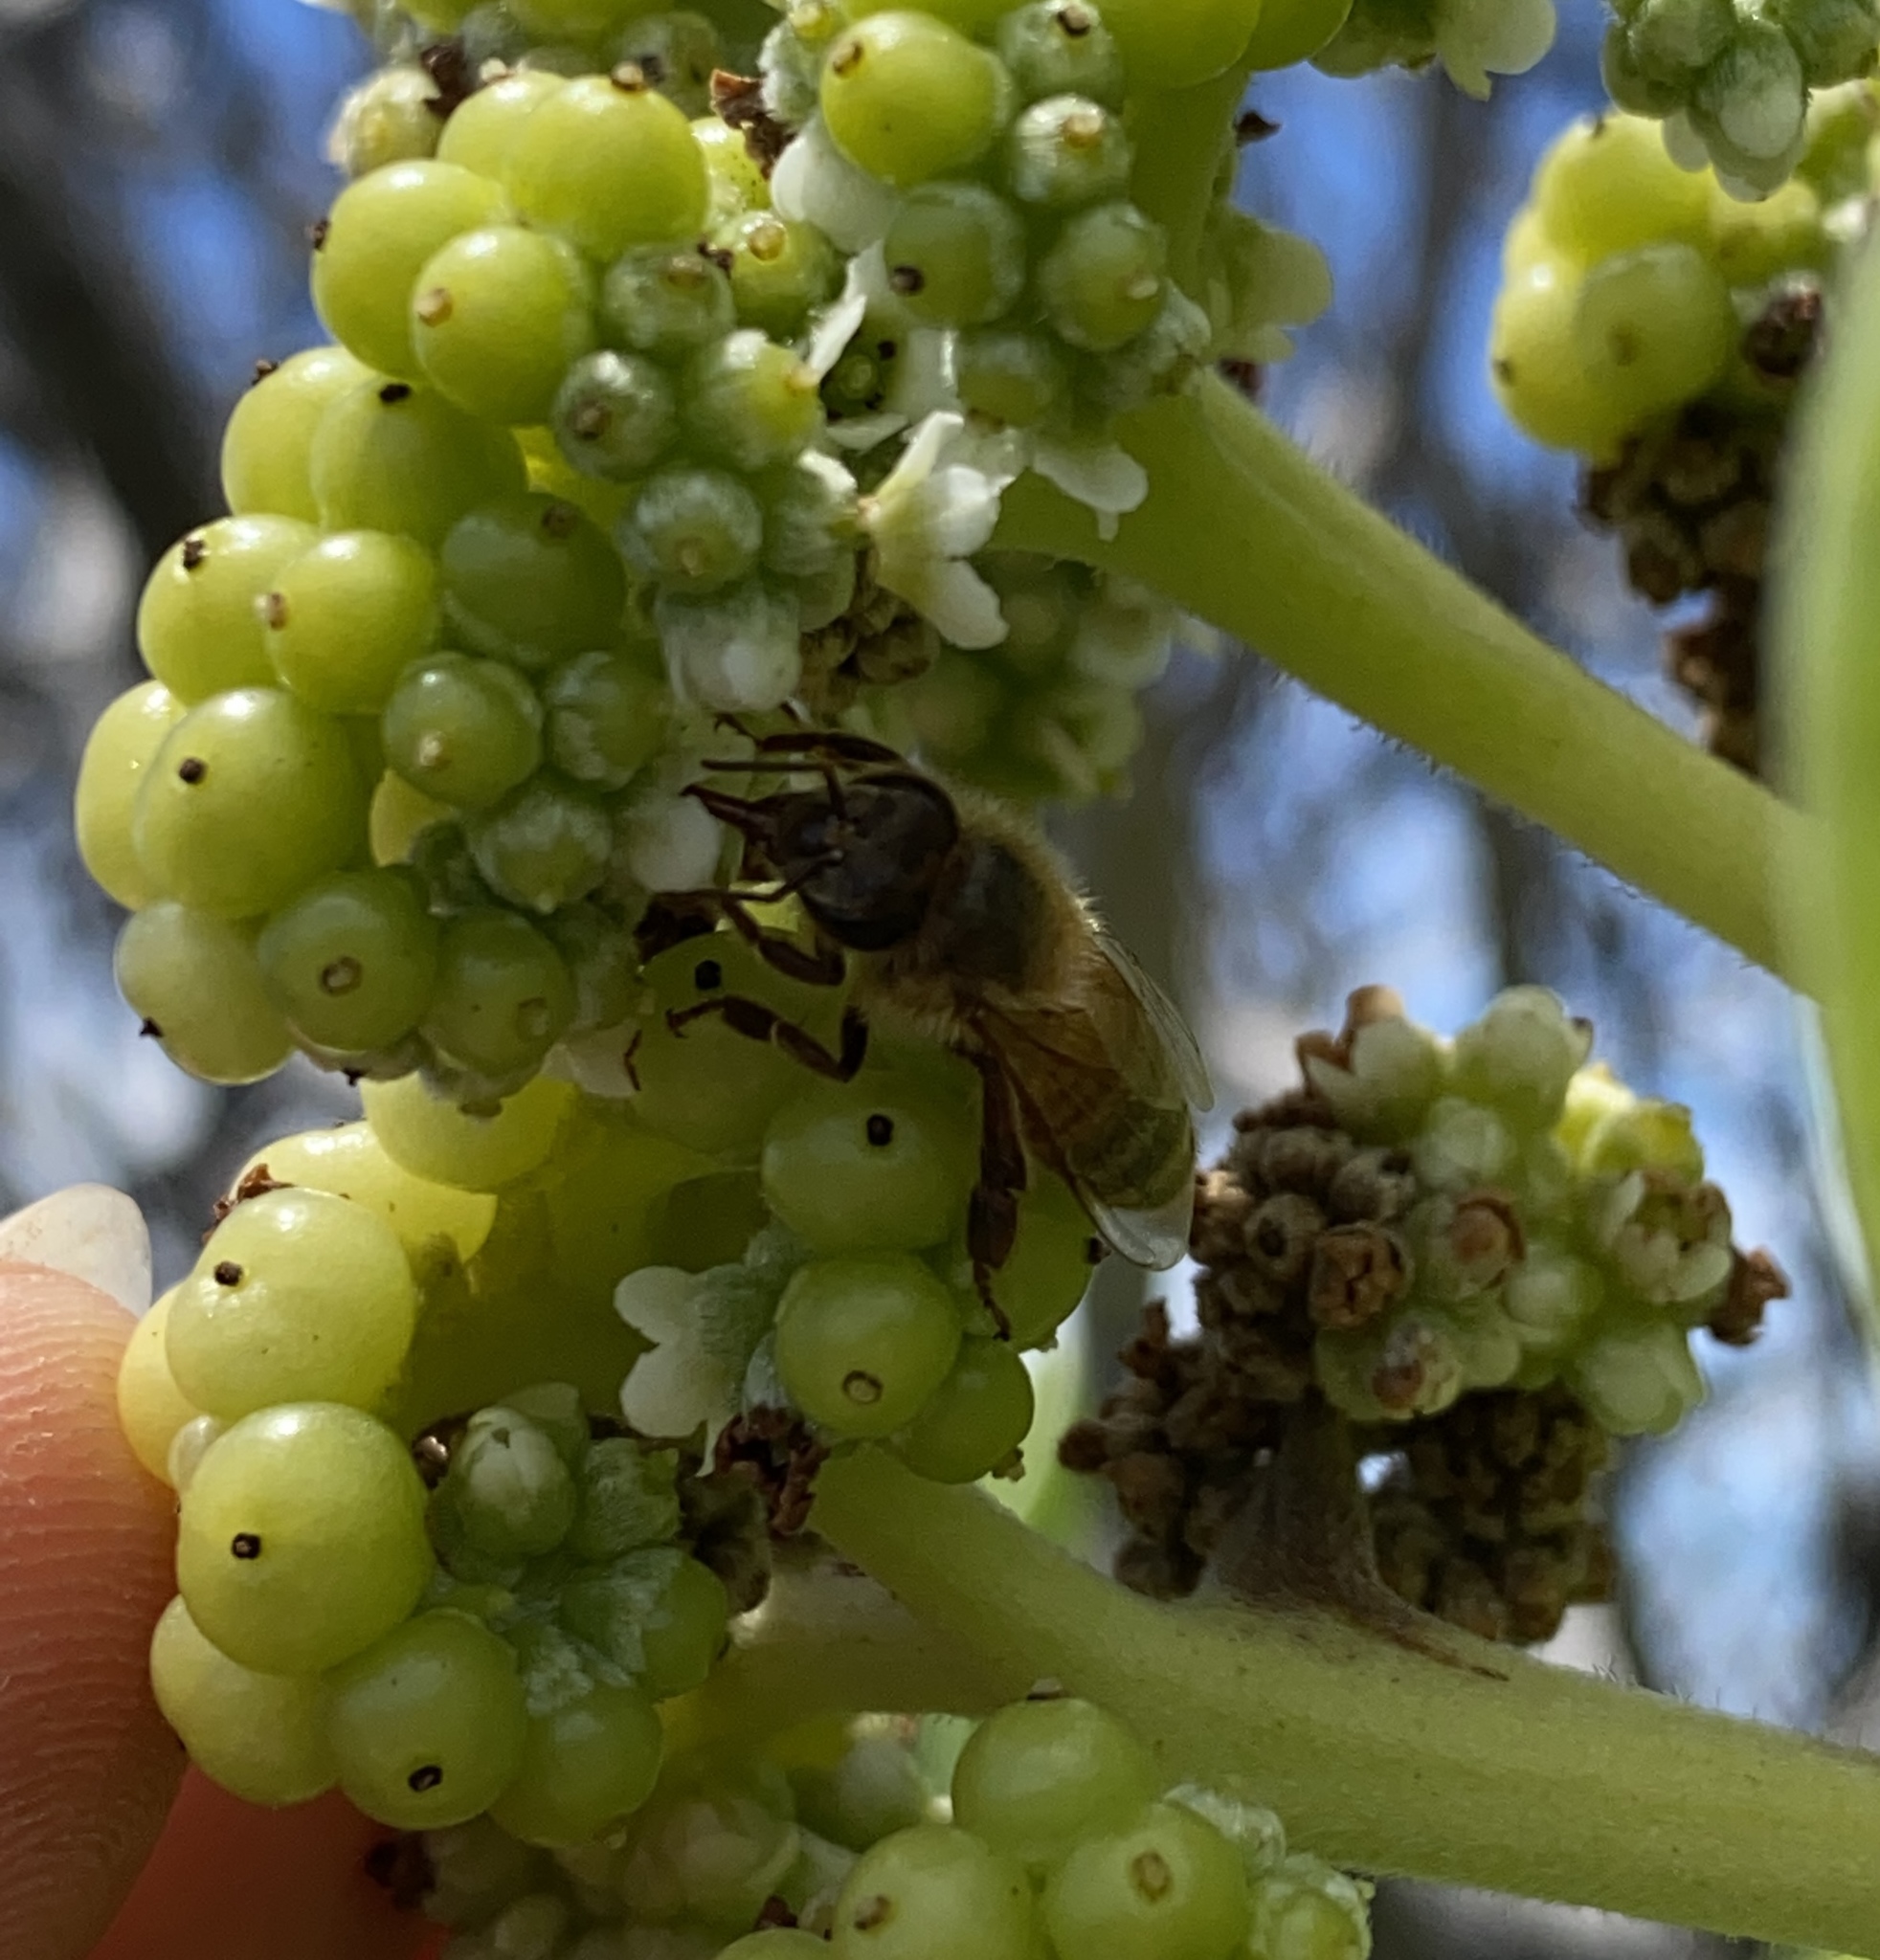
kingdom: Animalia
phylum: Arthropoda
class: Insecta
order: Hymenoptera
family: Apidae
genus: Apis
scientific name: Apis mellifera
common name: Honey bee
